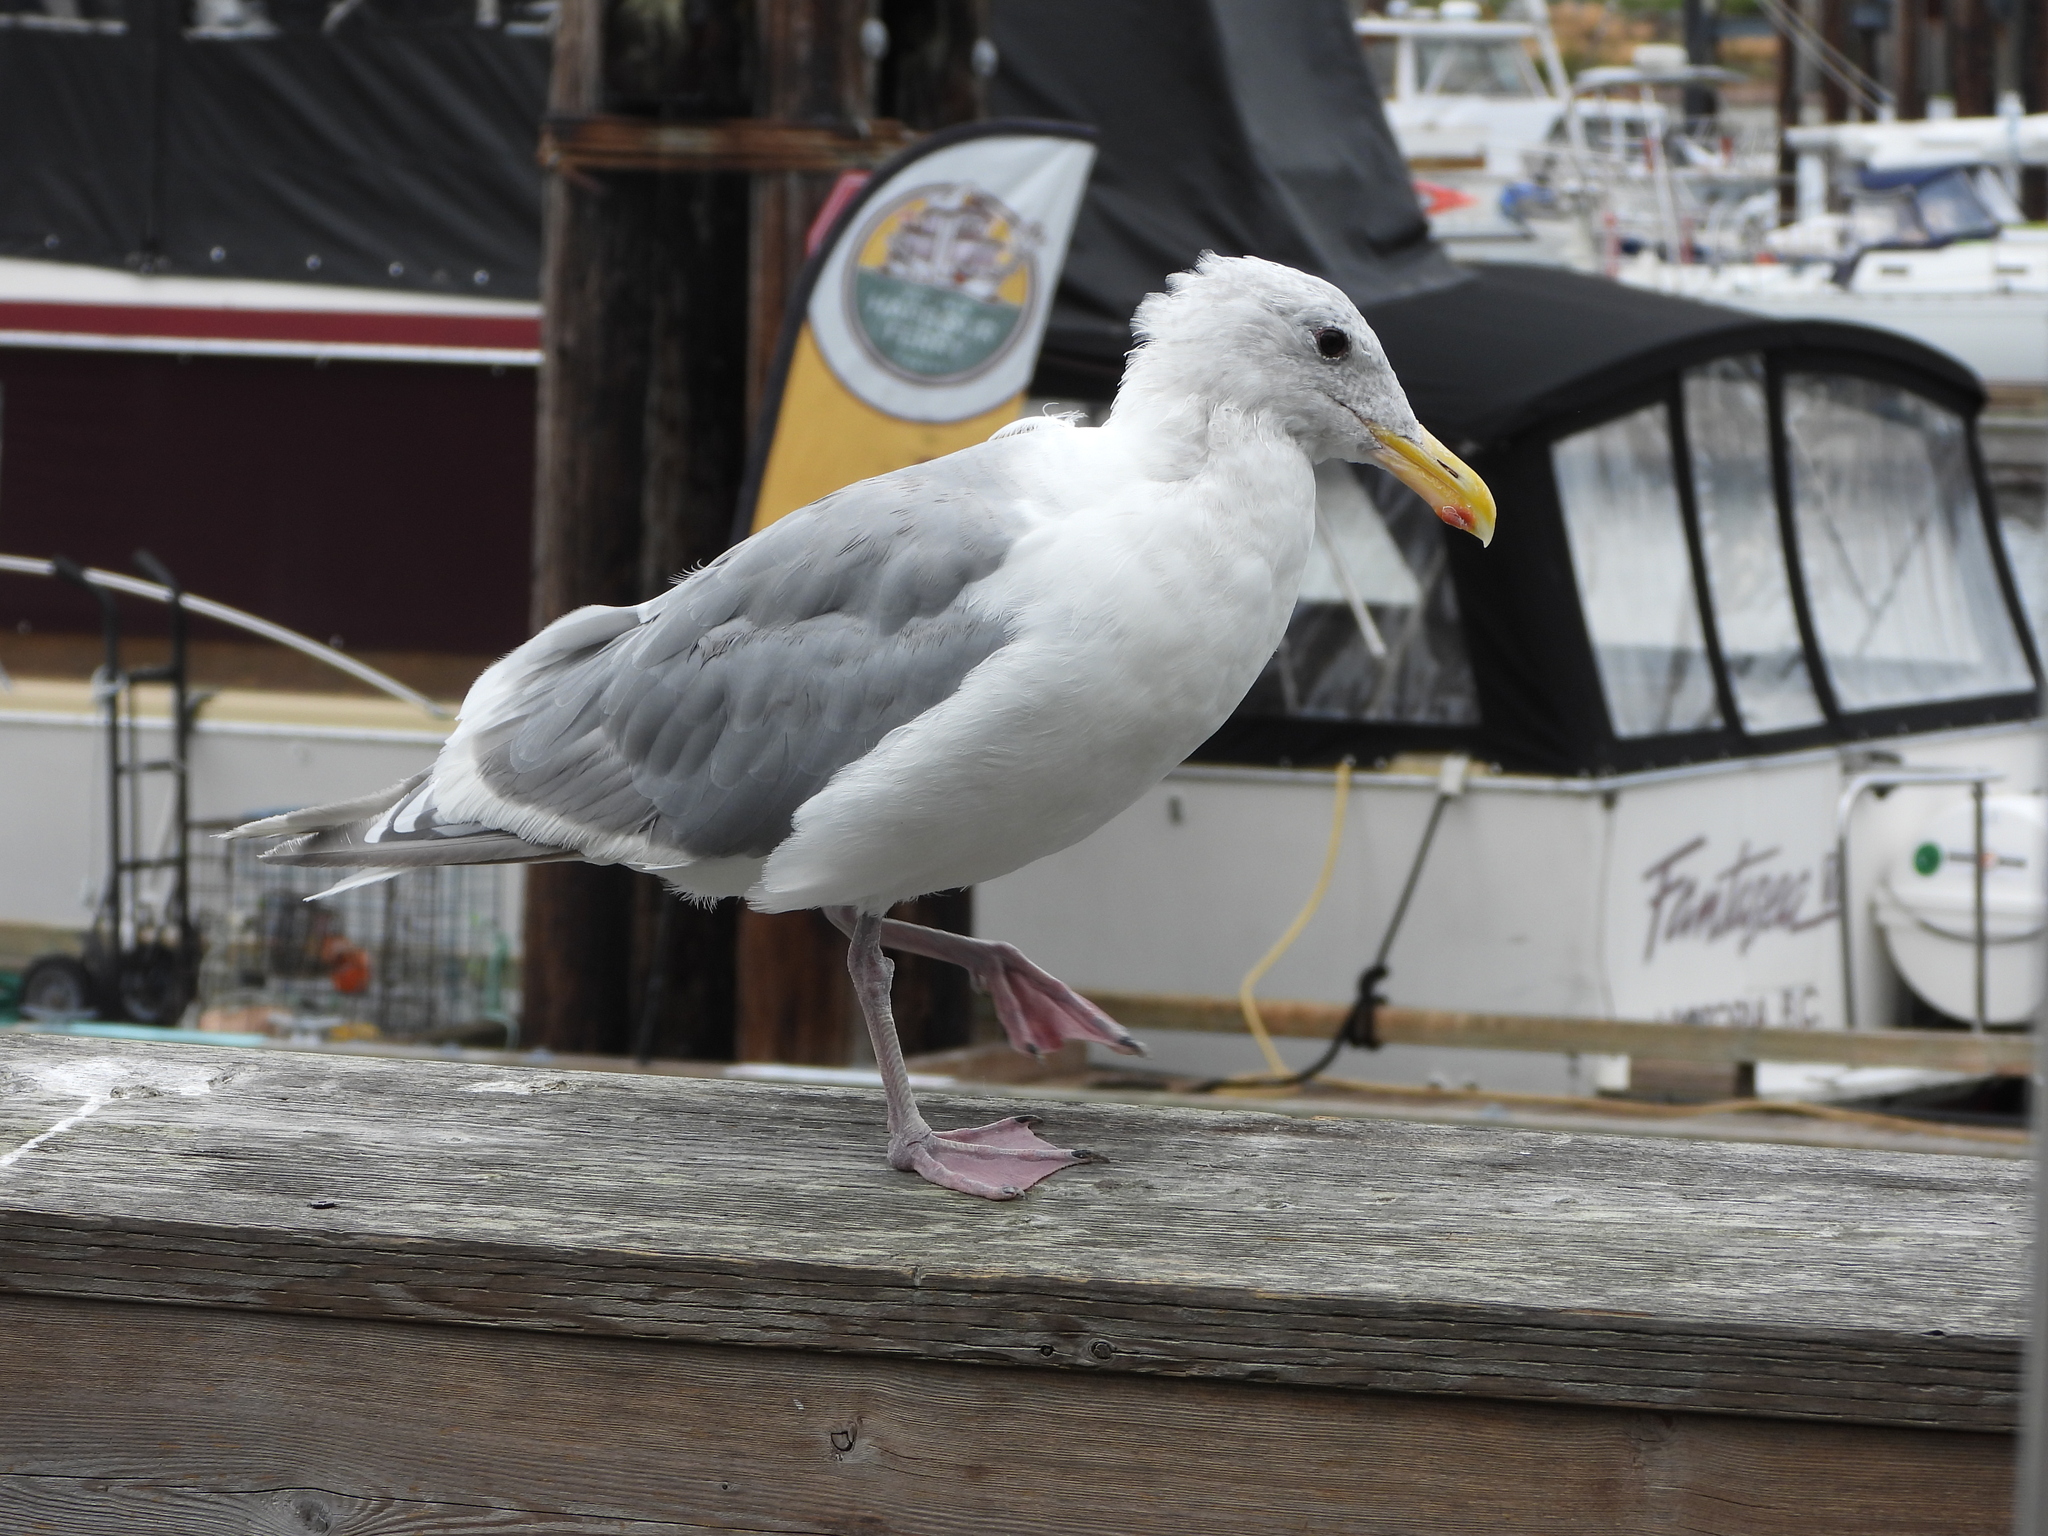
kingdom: Animalia
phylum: Chordata
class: Aves
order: Charadriiformes
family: Laridae
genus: Larus
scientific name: Larus glaucescens
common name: Glaucous-winged gull
